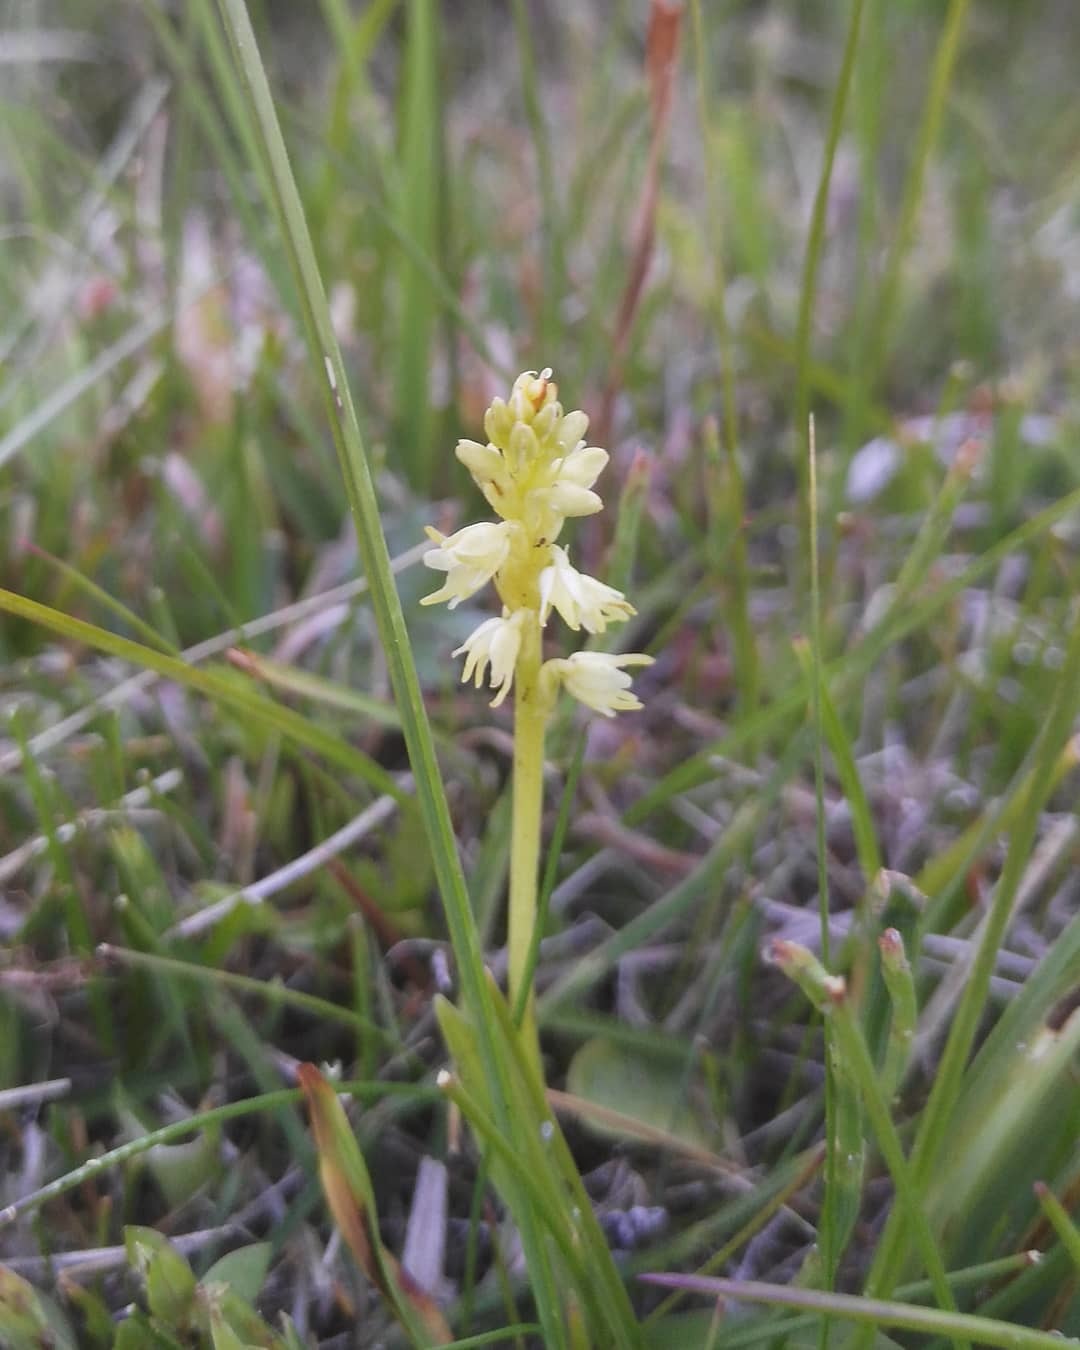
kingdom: Plantae
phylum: Tracheophyta
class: Liliopsida
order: Asparagales
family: Orchidaceae
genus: Herminium
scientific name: Herminium monorchis
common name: Musk orchid
